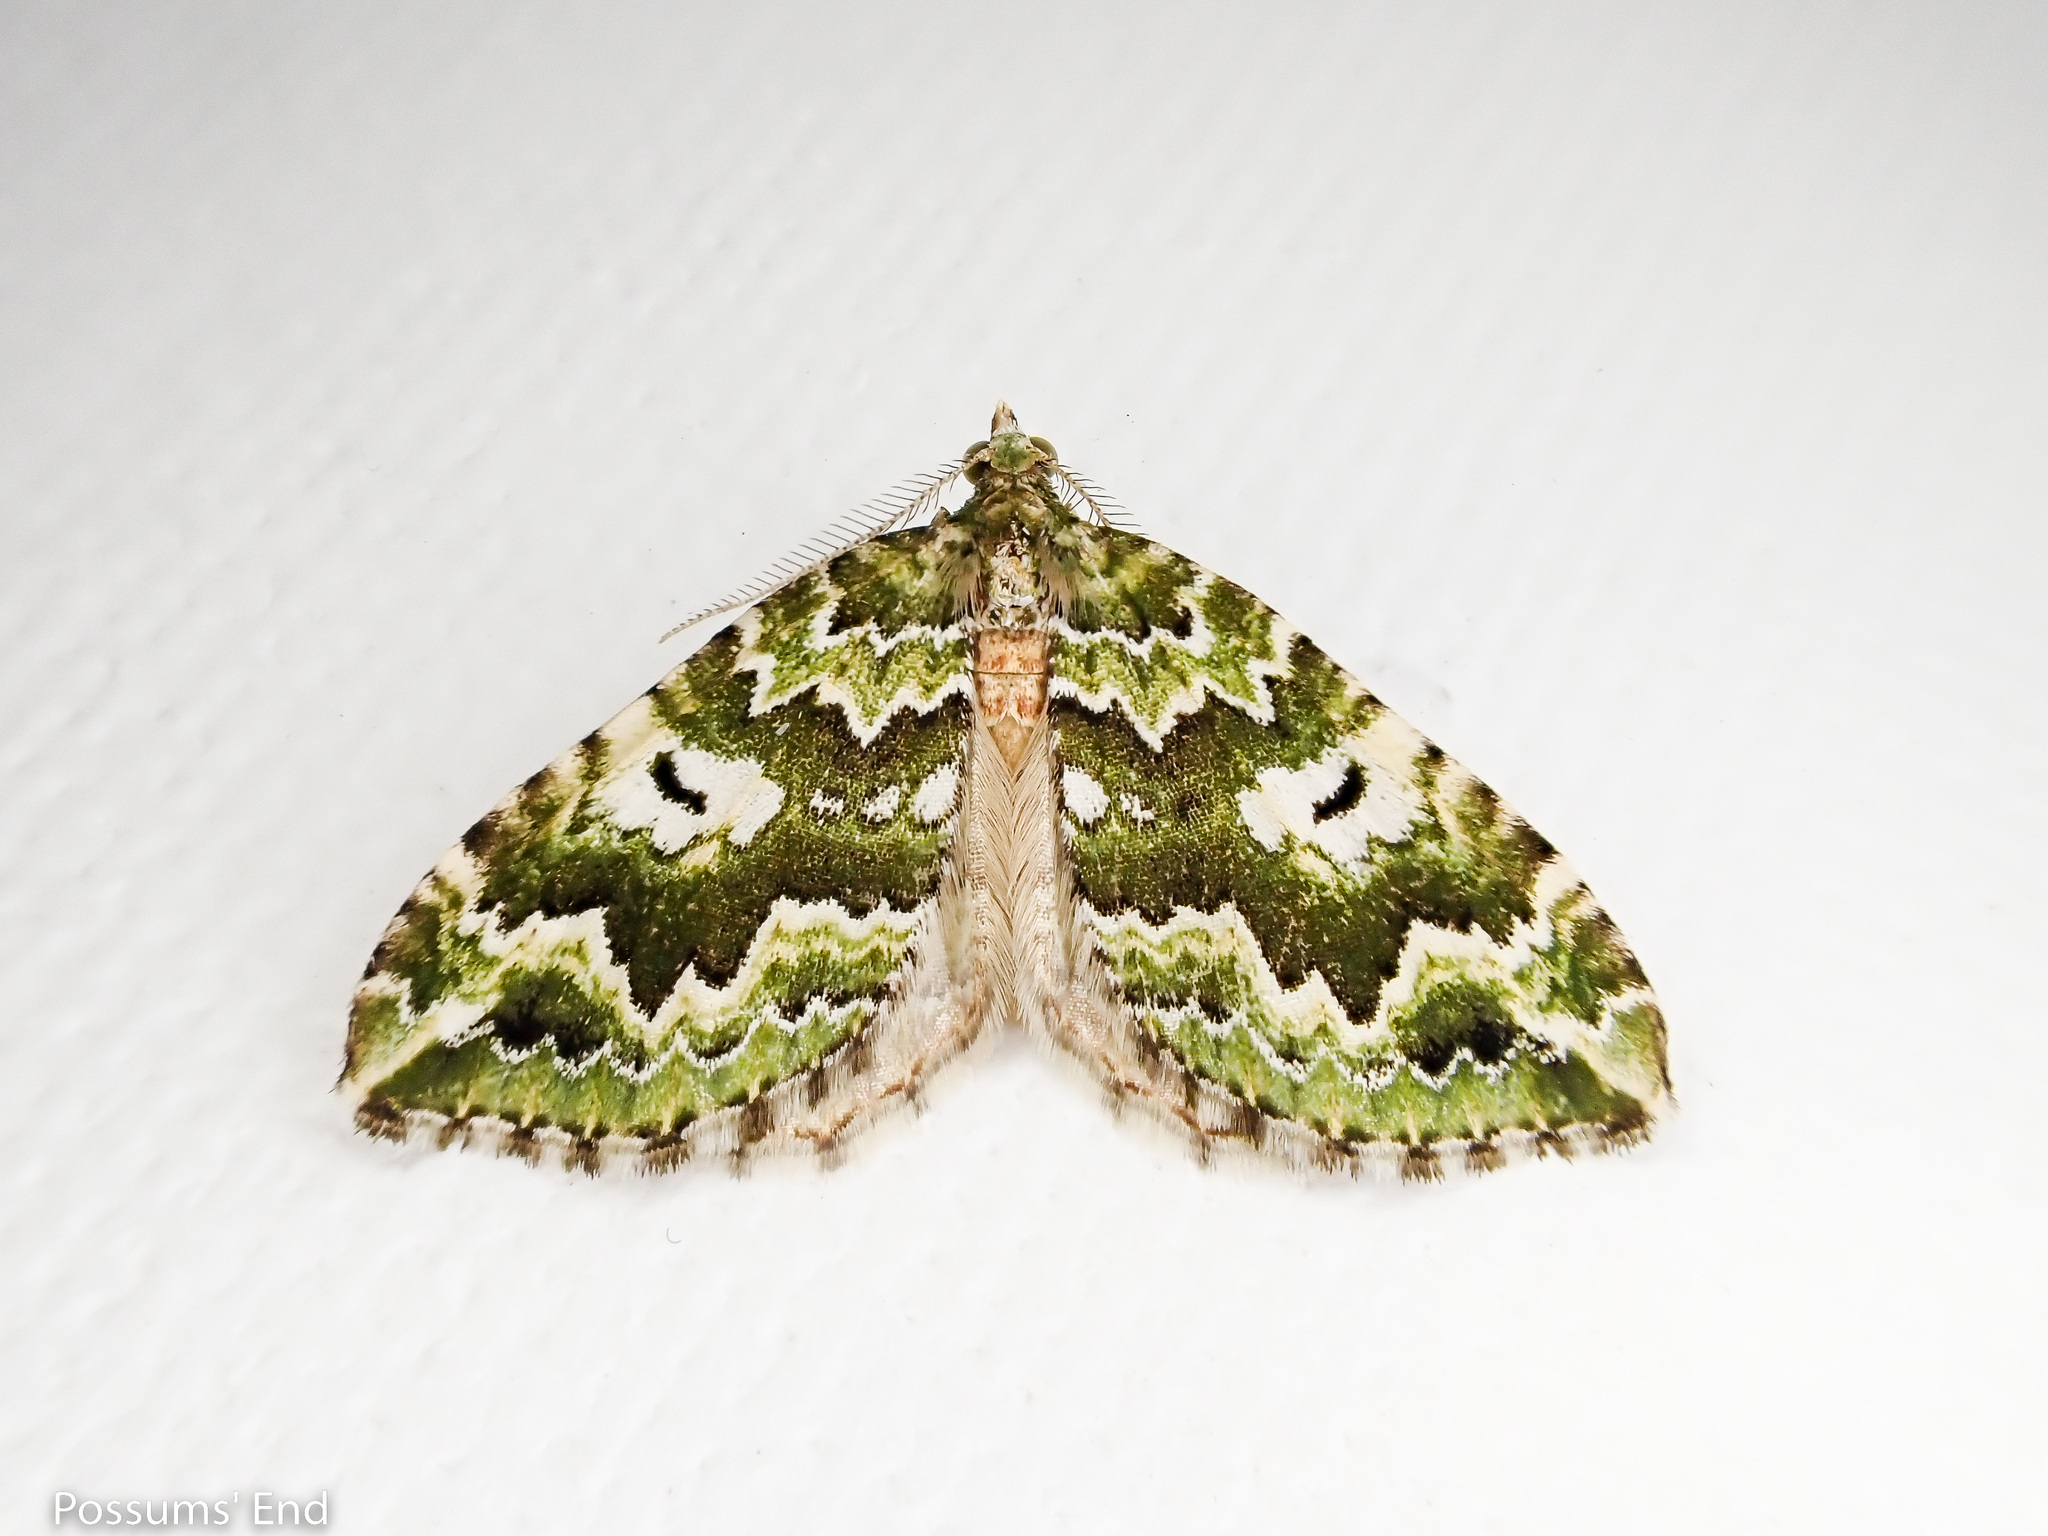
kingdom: Animalia
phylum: Arthropoda
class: Insecta
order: Lepidoptera
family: Geometridae
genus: Asaphodes
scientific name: Asaphodes beata
